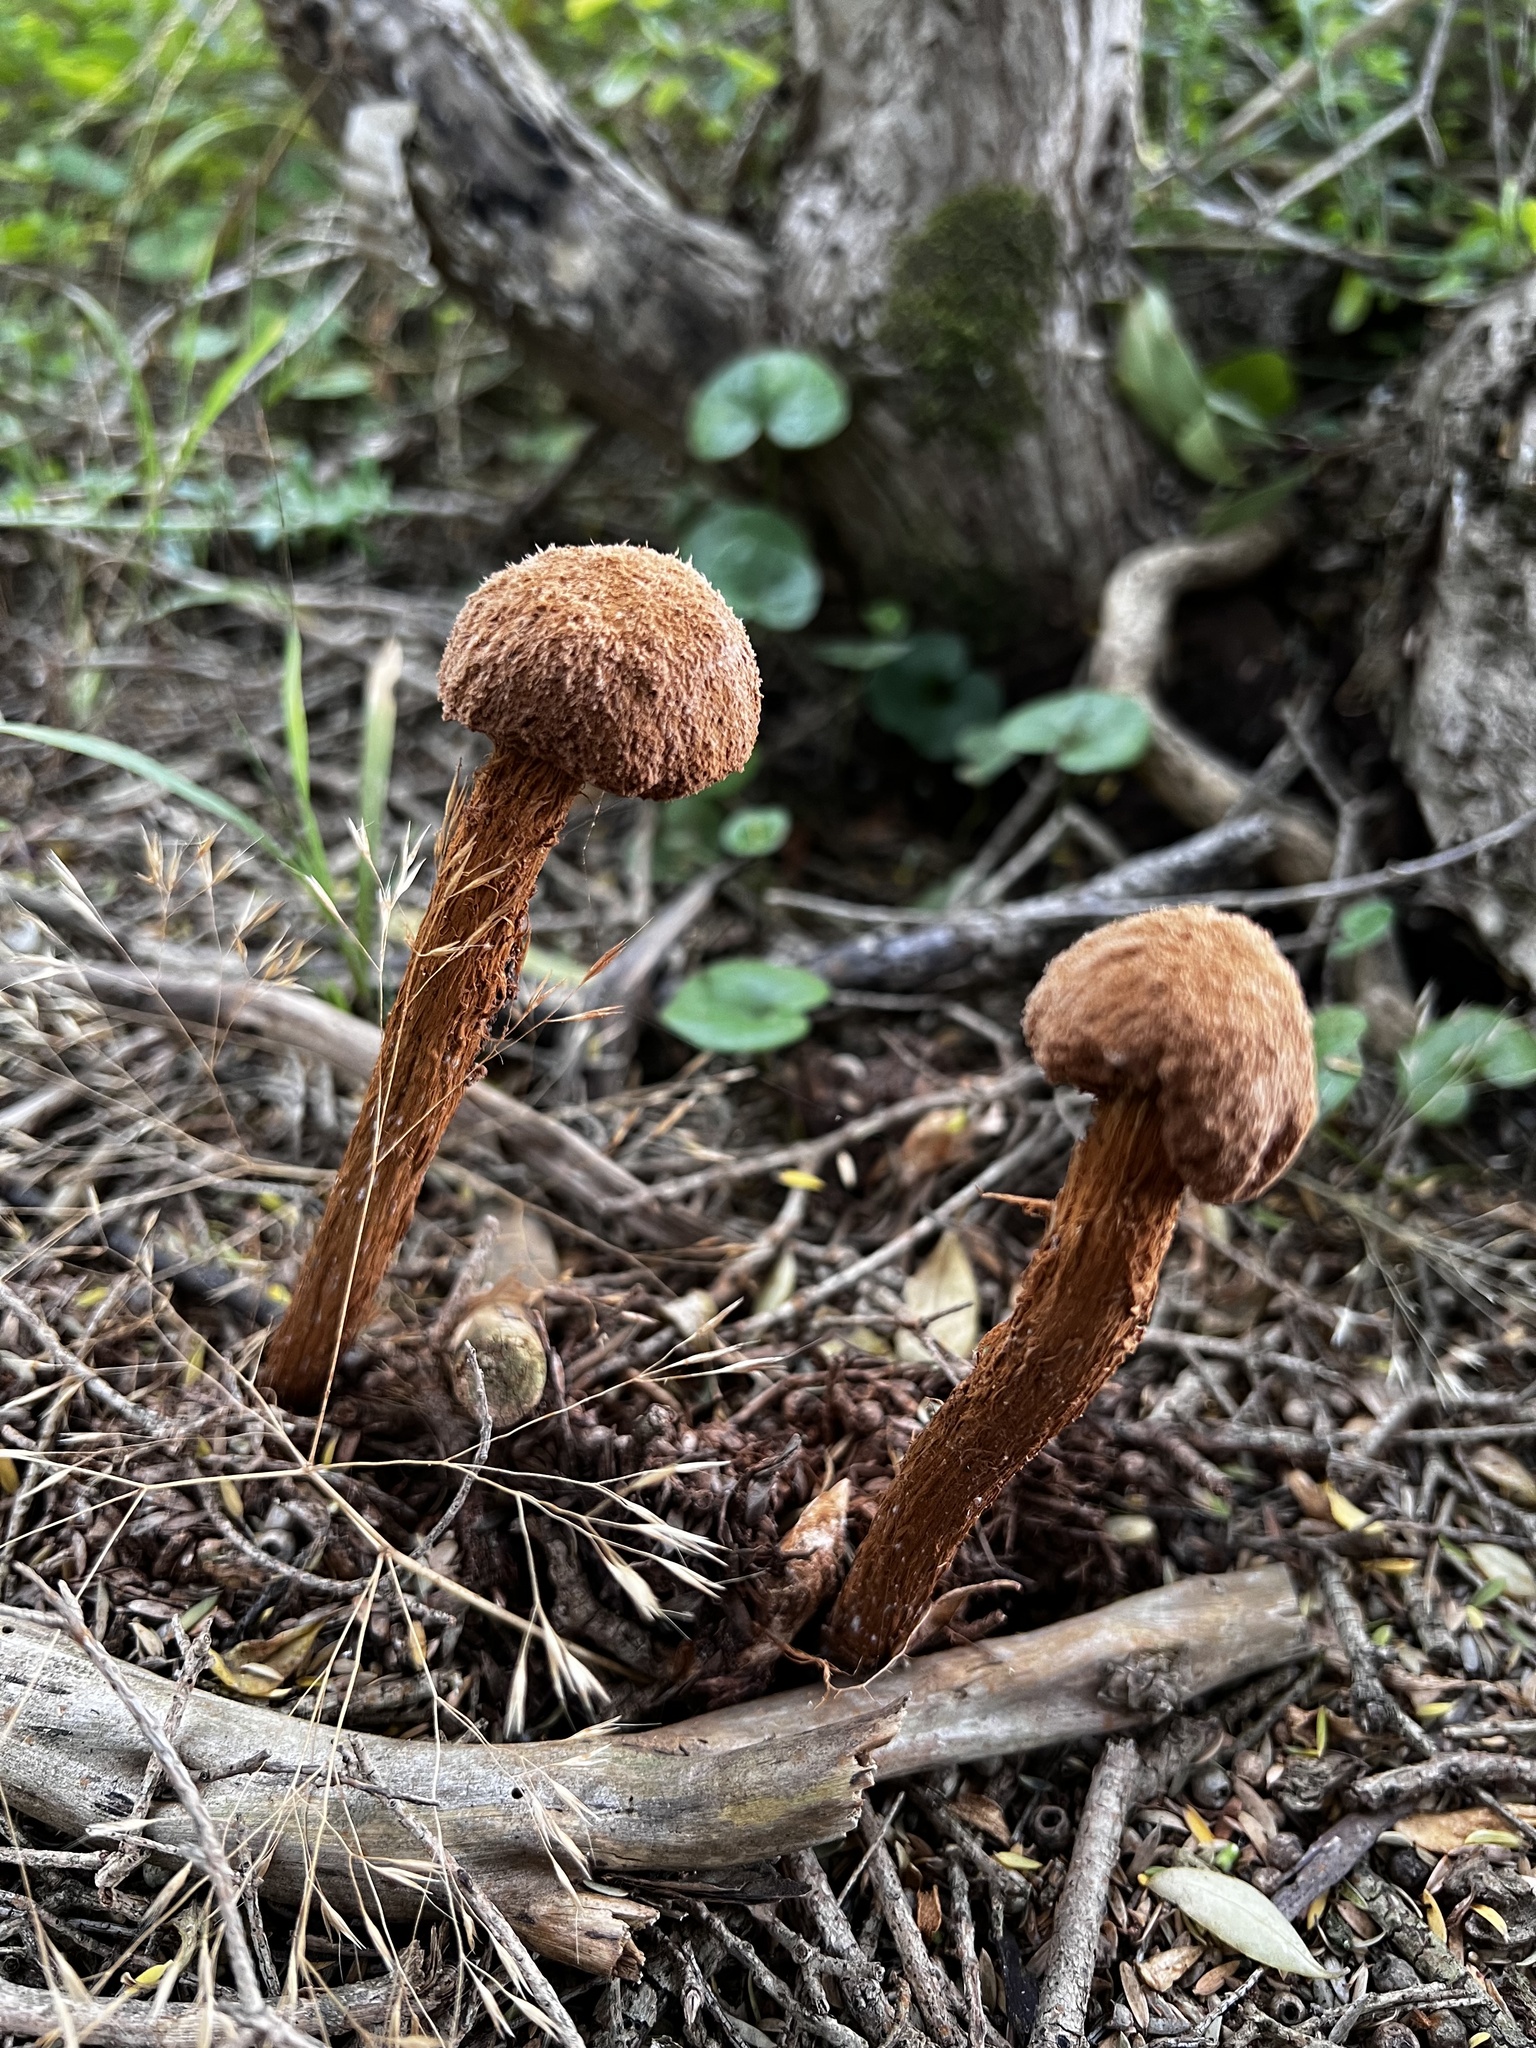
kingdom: Fungi
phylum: Basidiomycota
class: Agaricomycetes
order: Agaricales
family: Agaricaceae
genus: Battarrea
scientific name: Battarrea phalloides
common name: Sandy stiltball
